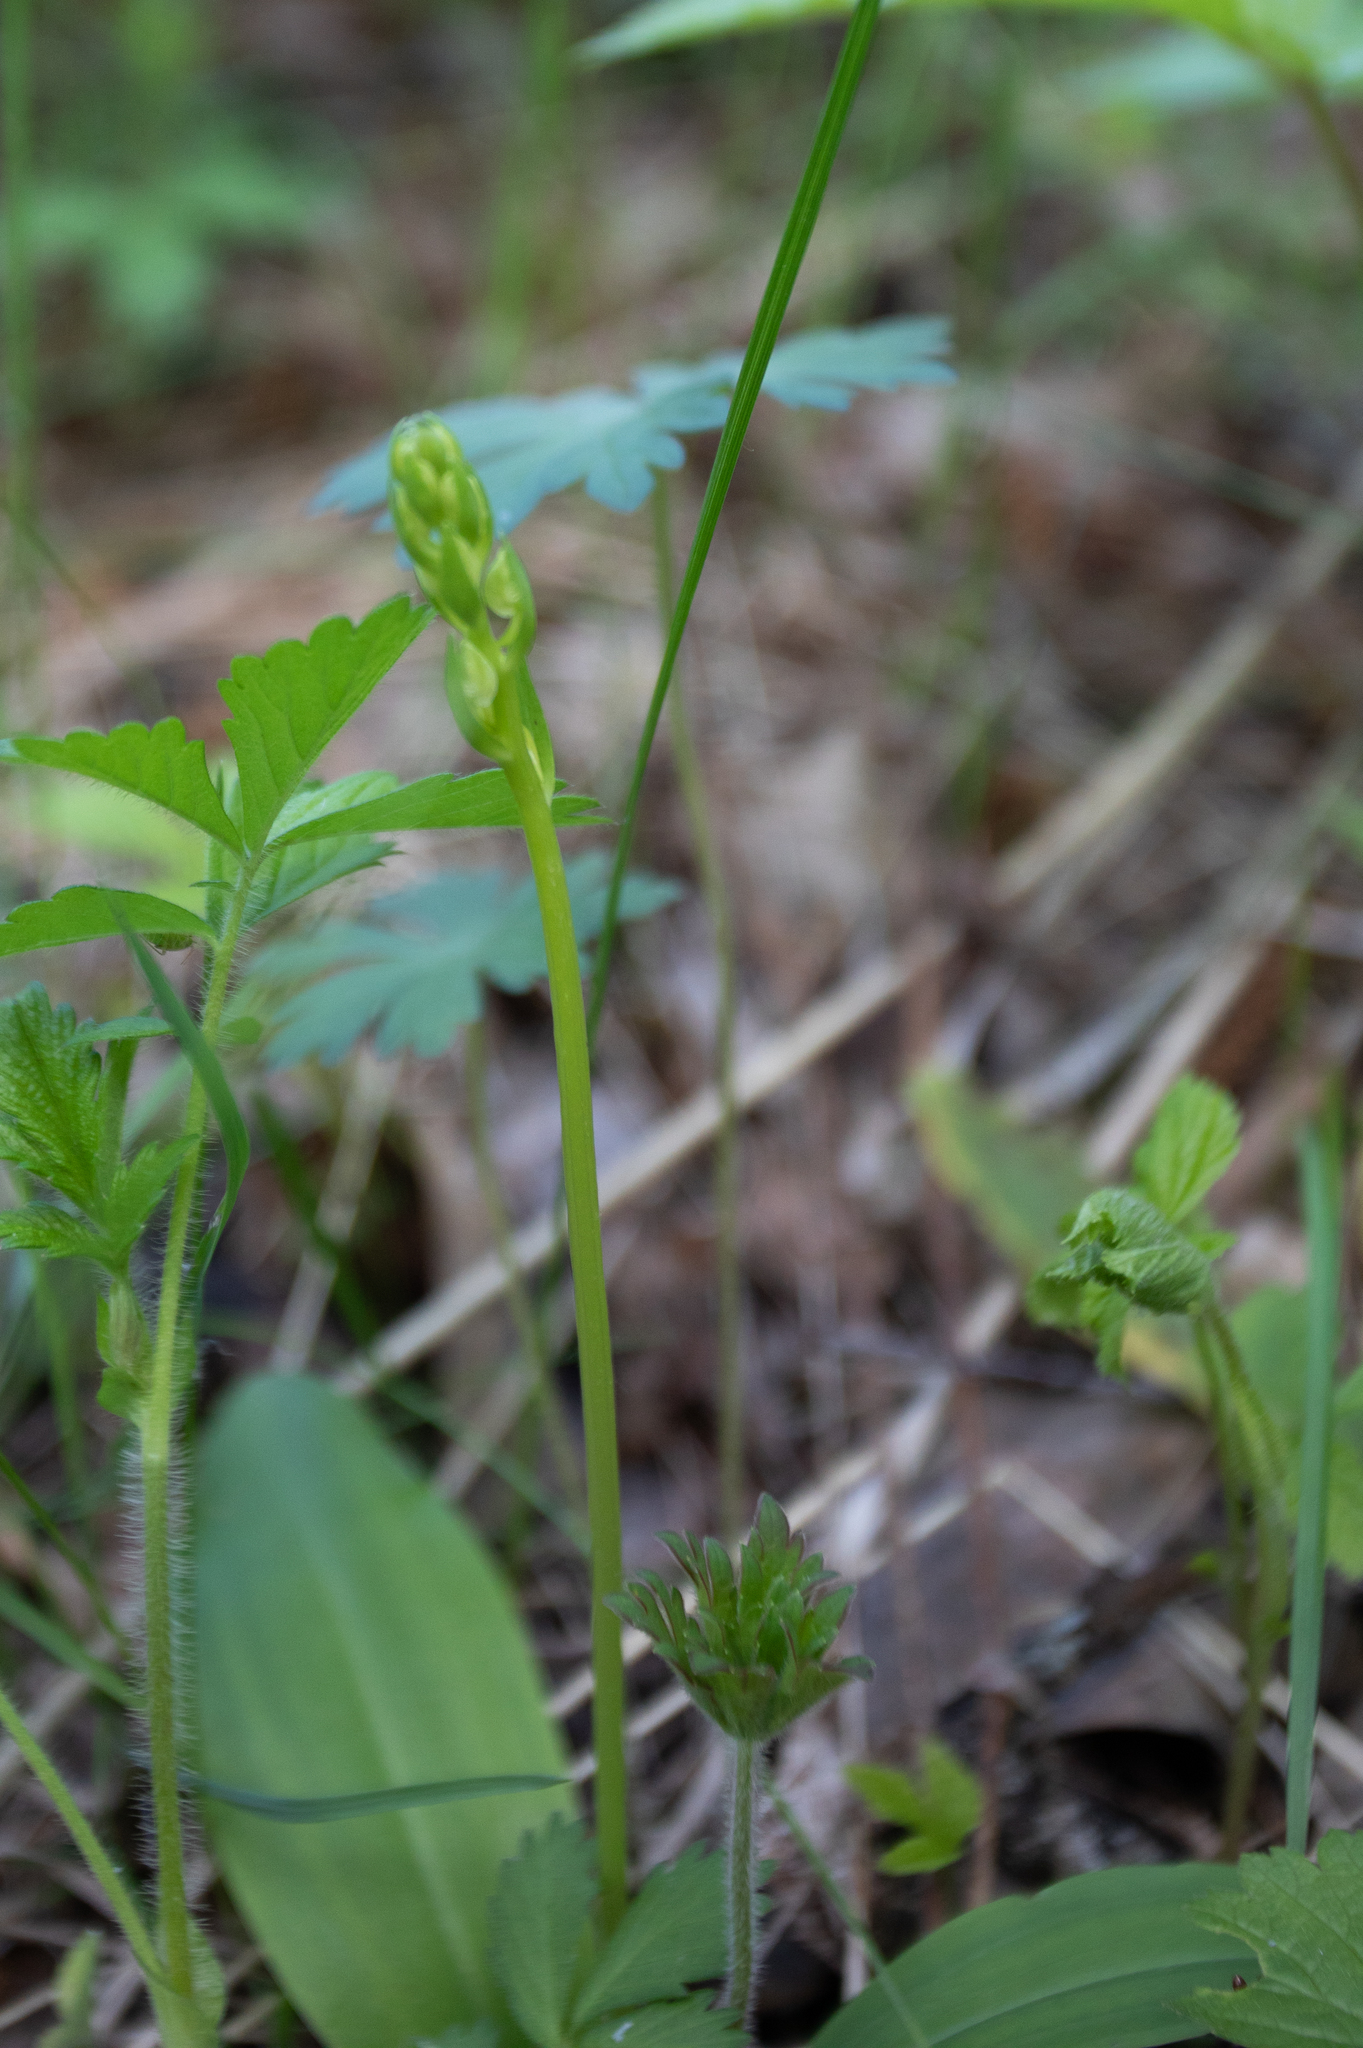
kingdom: Plantae
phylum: Tracheophyta
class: Liliopsida
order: Asparagales
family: Orchidaceae
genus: Neottia
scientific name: Neottia ovata
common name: Common twayblade
